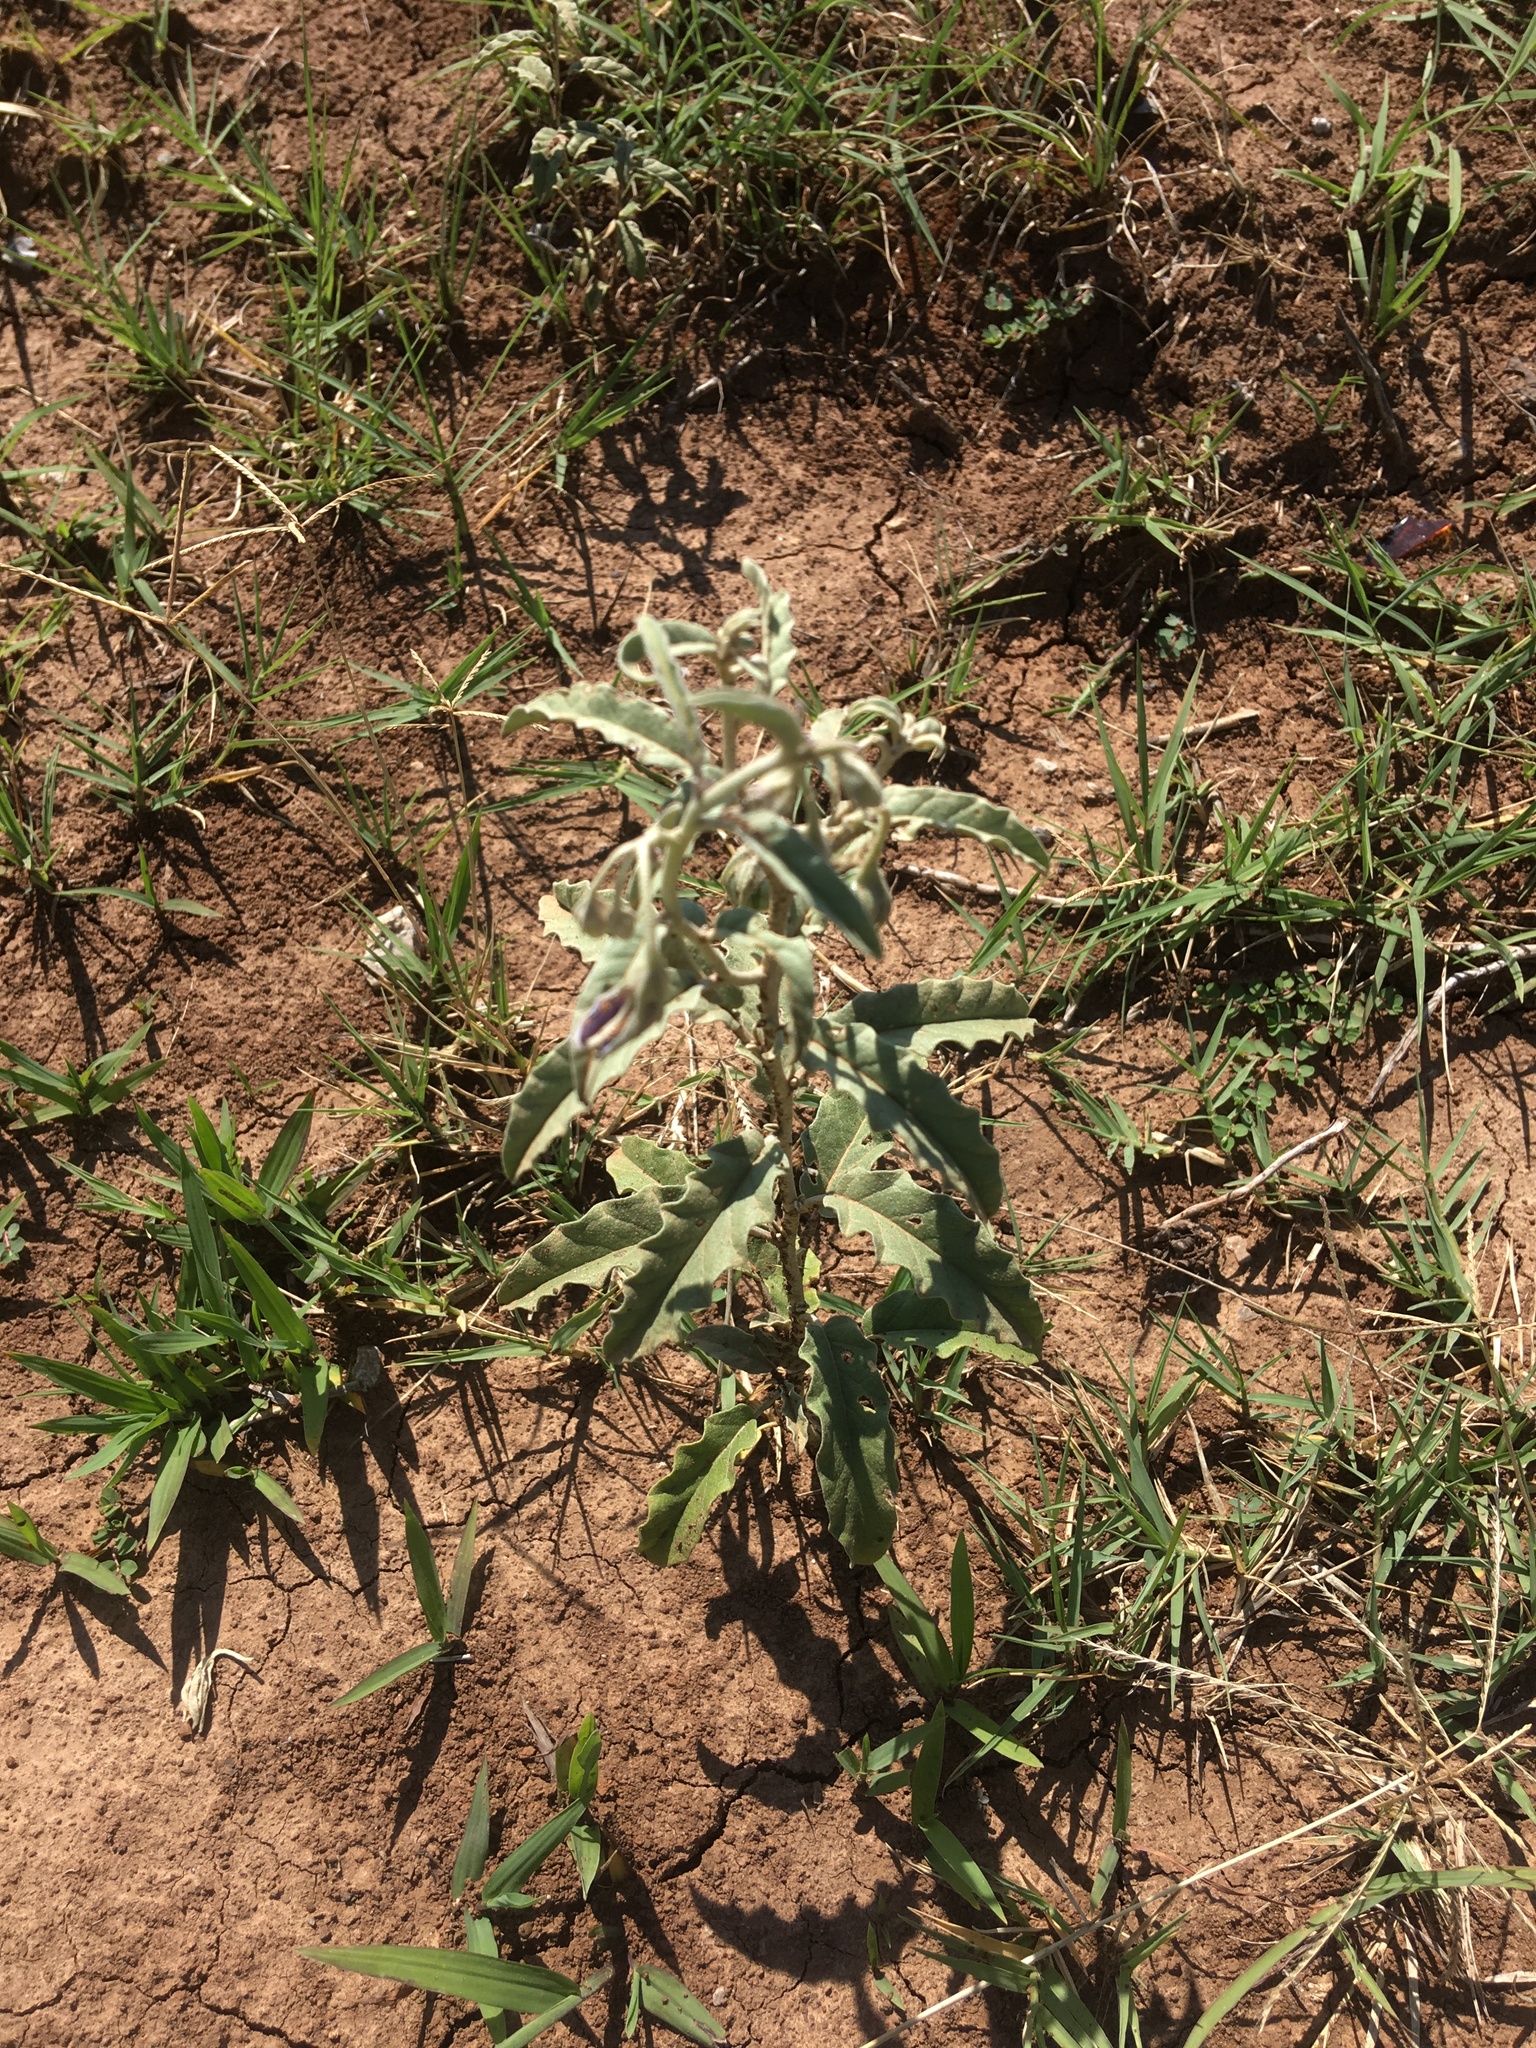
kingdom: Plantae
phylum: Tracheophyta
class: Magnoliopsida
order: Solanales
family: Solanaceae
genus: Solanum
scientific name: Solanum elaeagnifolium
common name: Silverleaf nightshade
